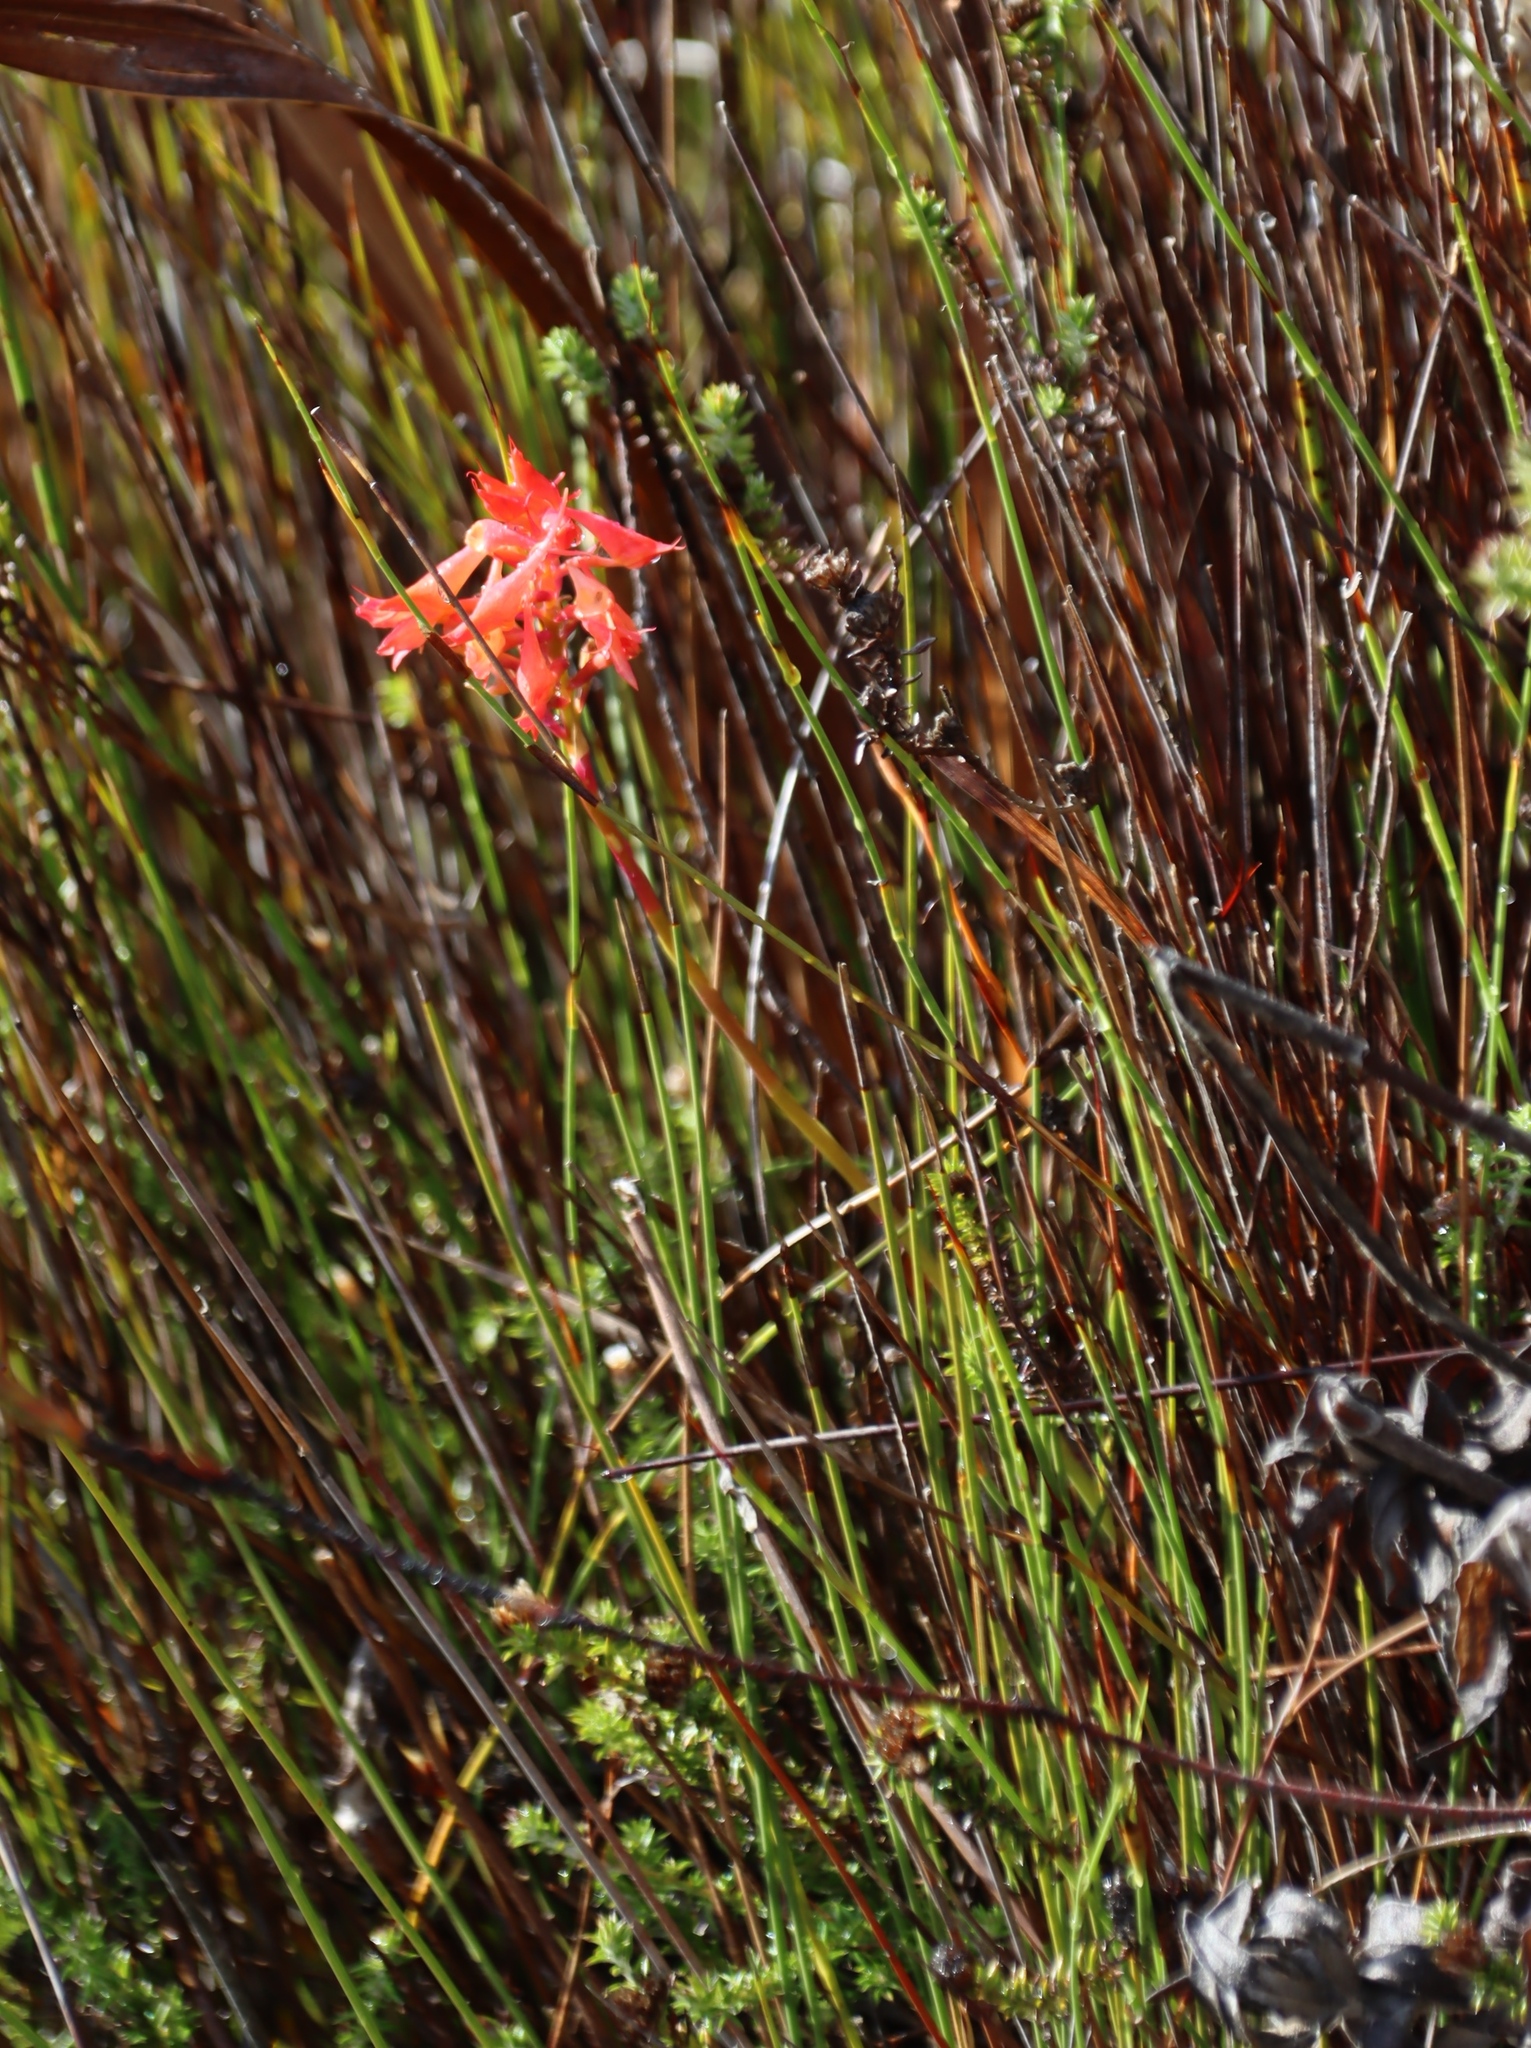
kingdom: Plantae
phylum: Tracheophyta
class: Liliopsida
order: Asparagales
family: Orchidaceae
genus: Disa
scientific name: Disa ferruginea
